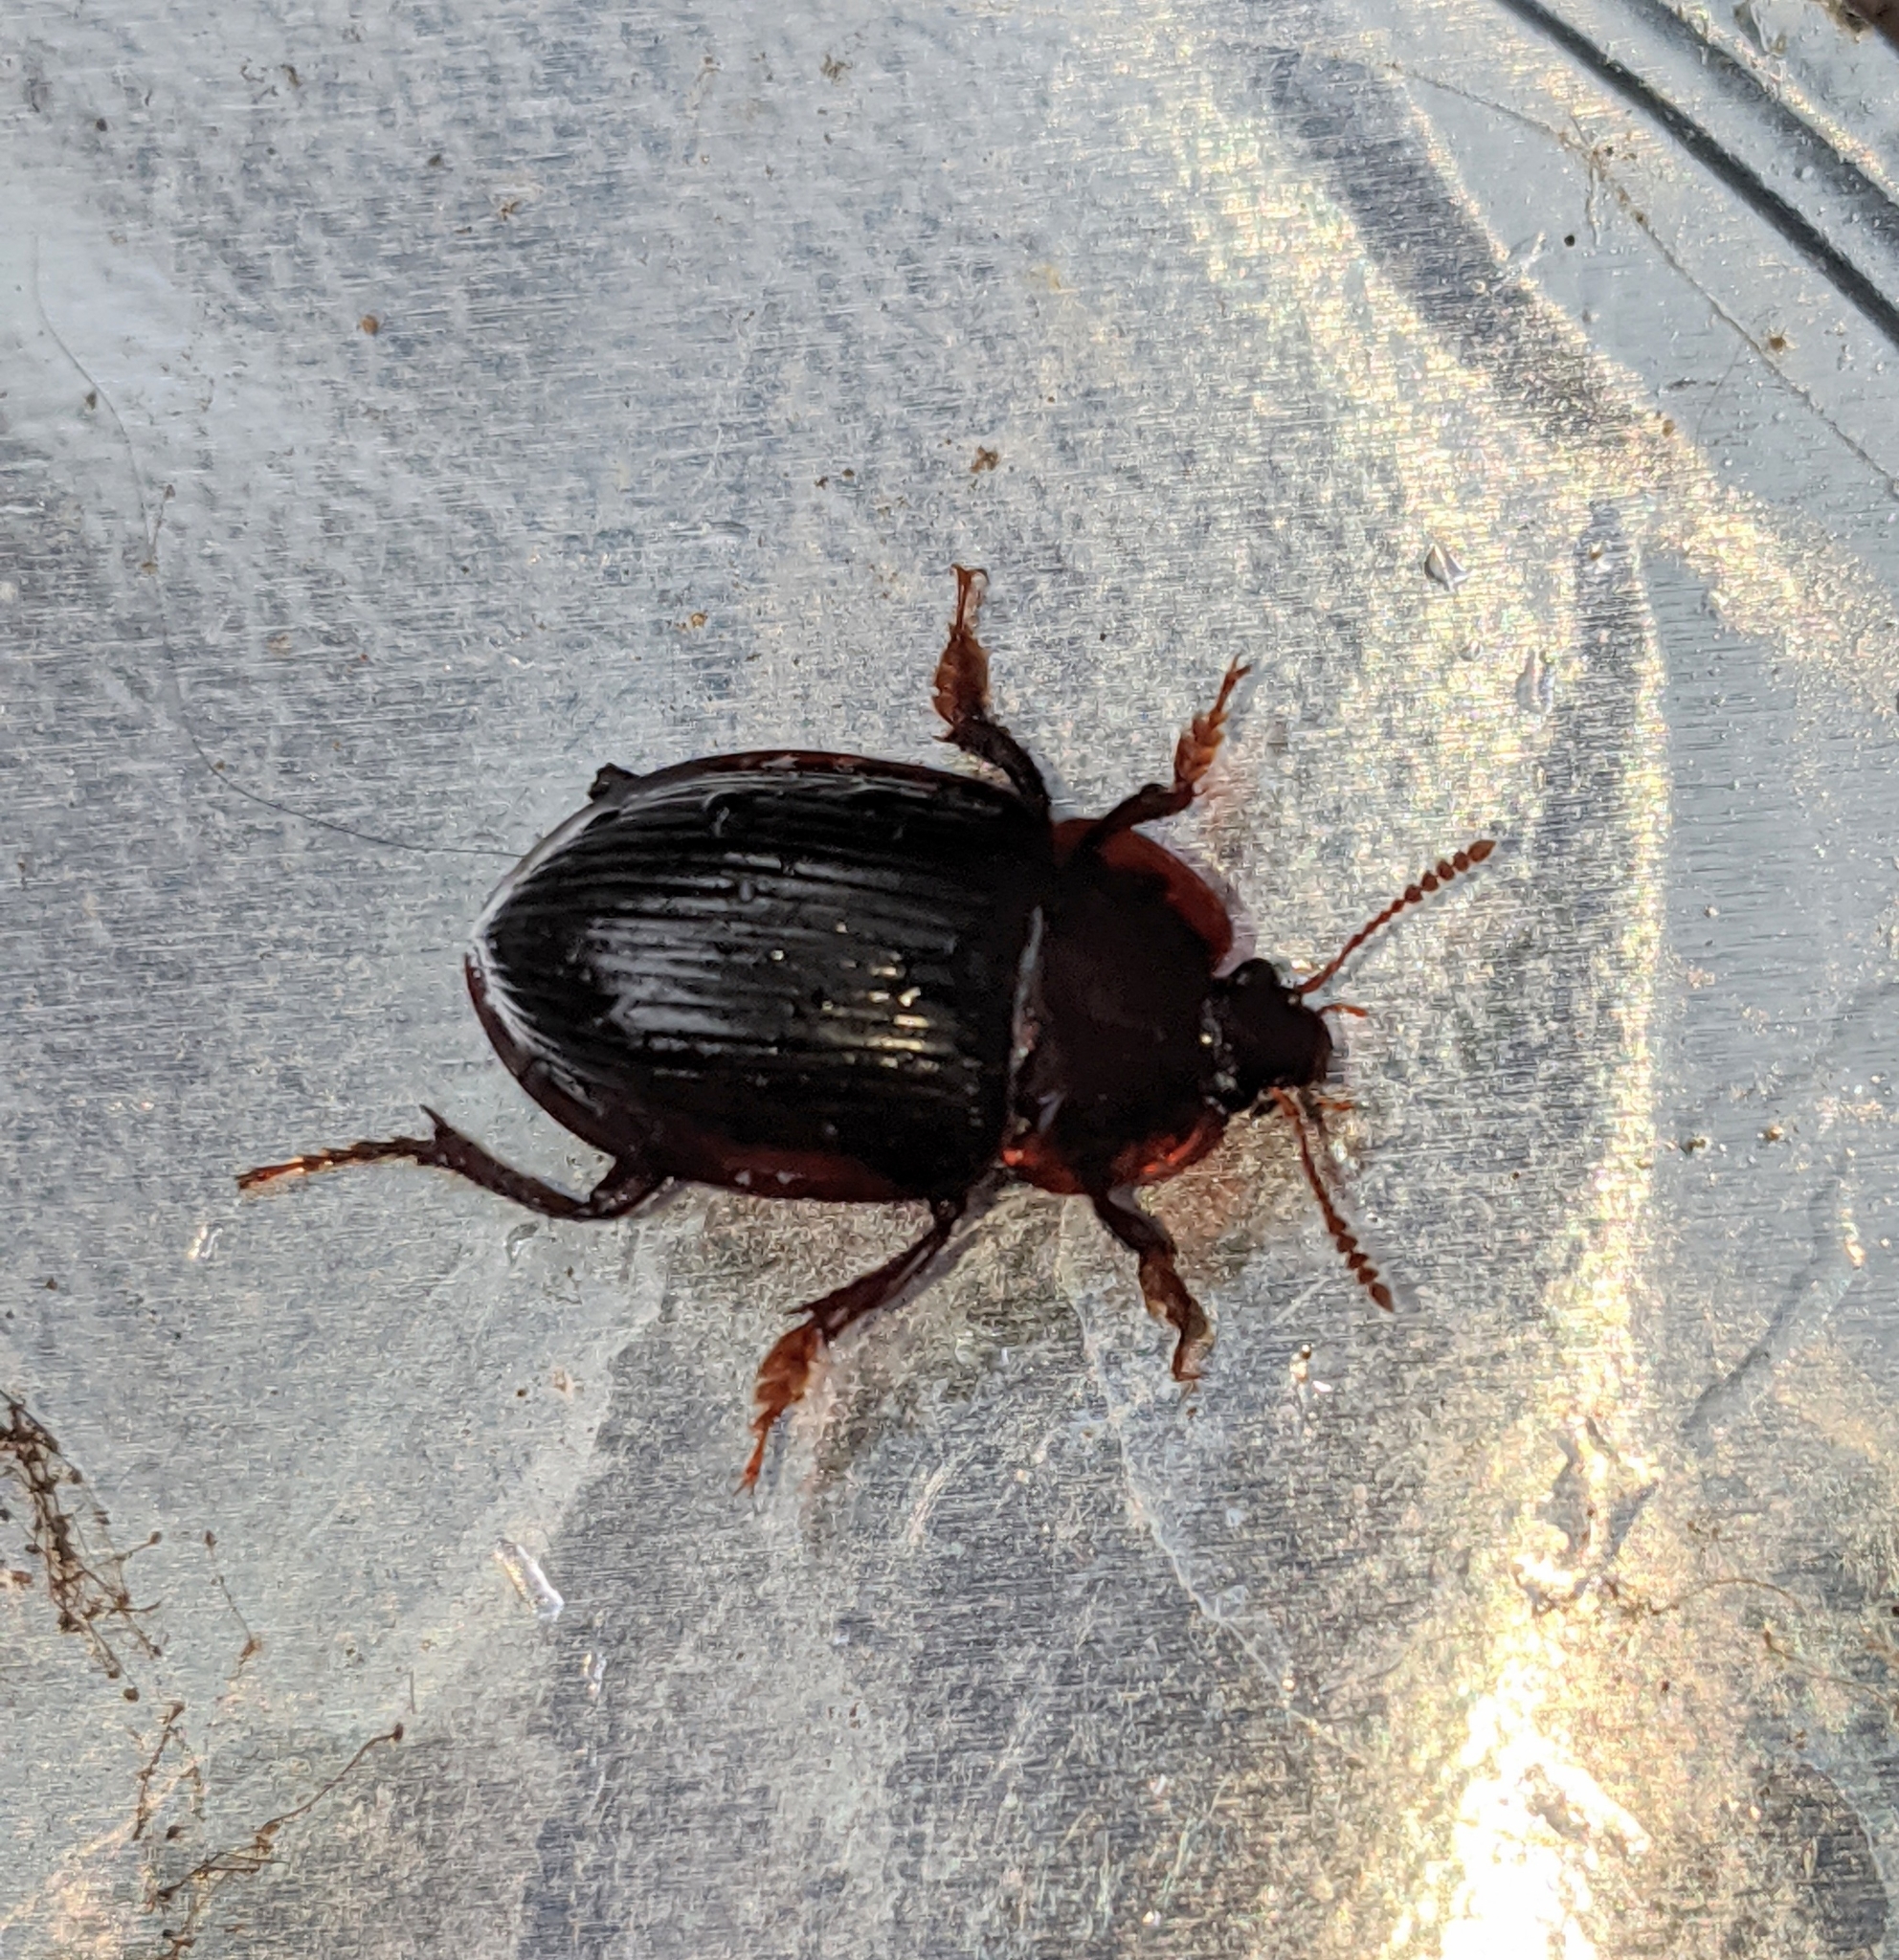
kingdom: Animalia
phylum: Arthropoda
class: Insecta
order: Coleoptera
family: Agyrtidae
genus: Necrophilus
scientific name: Necrophilus hydrophiloides
